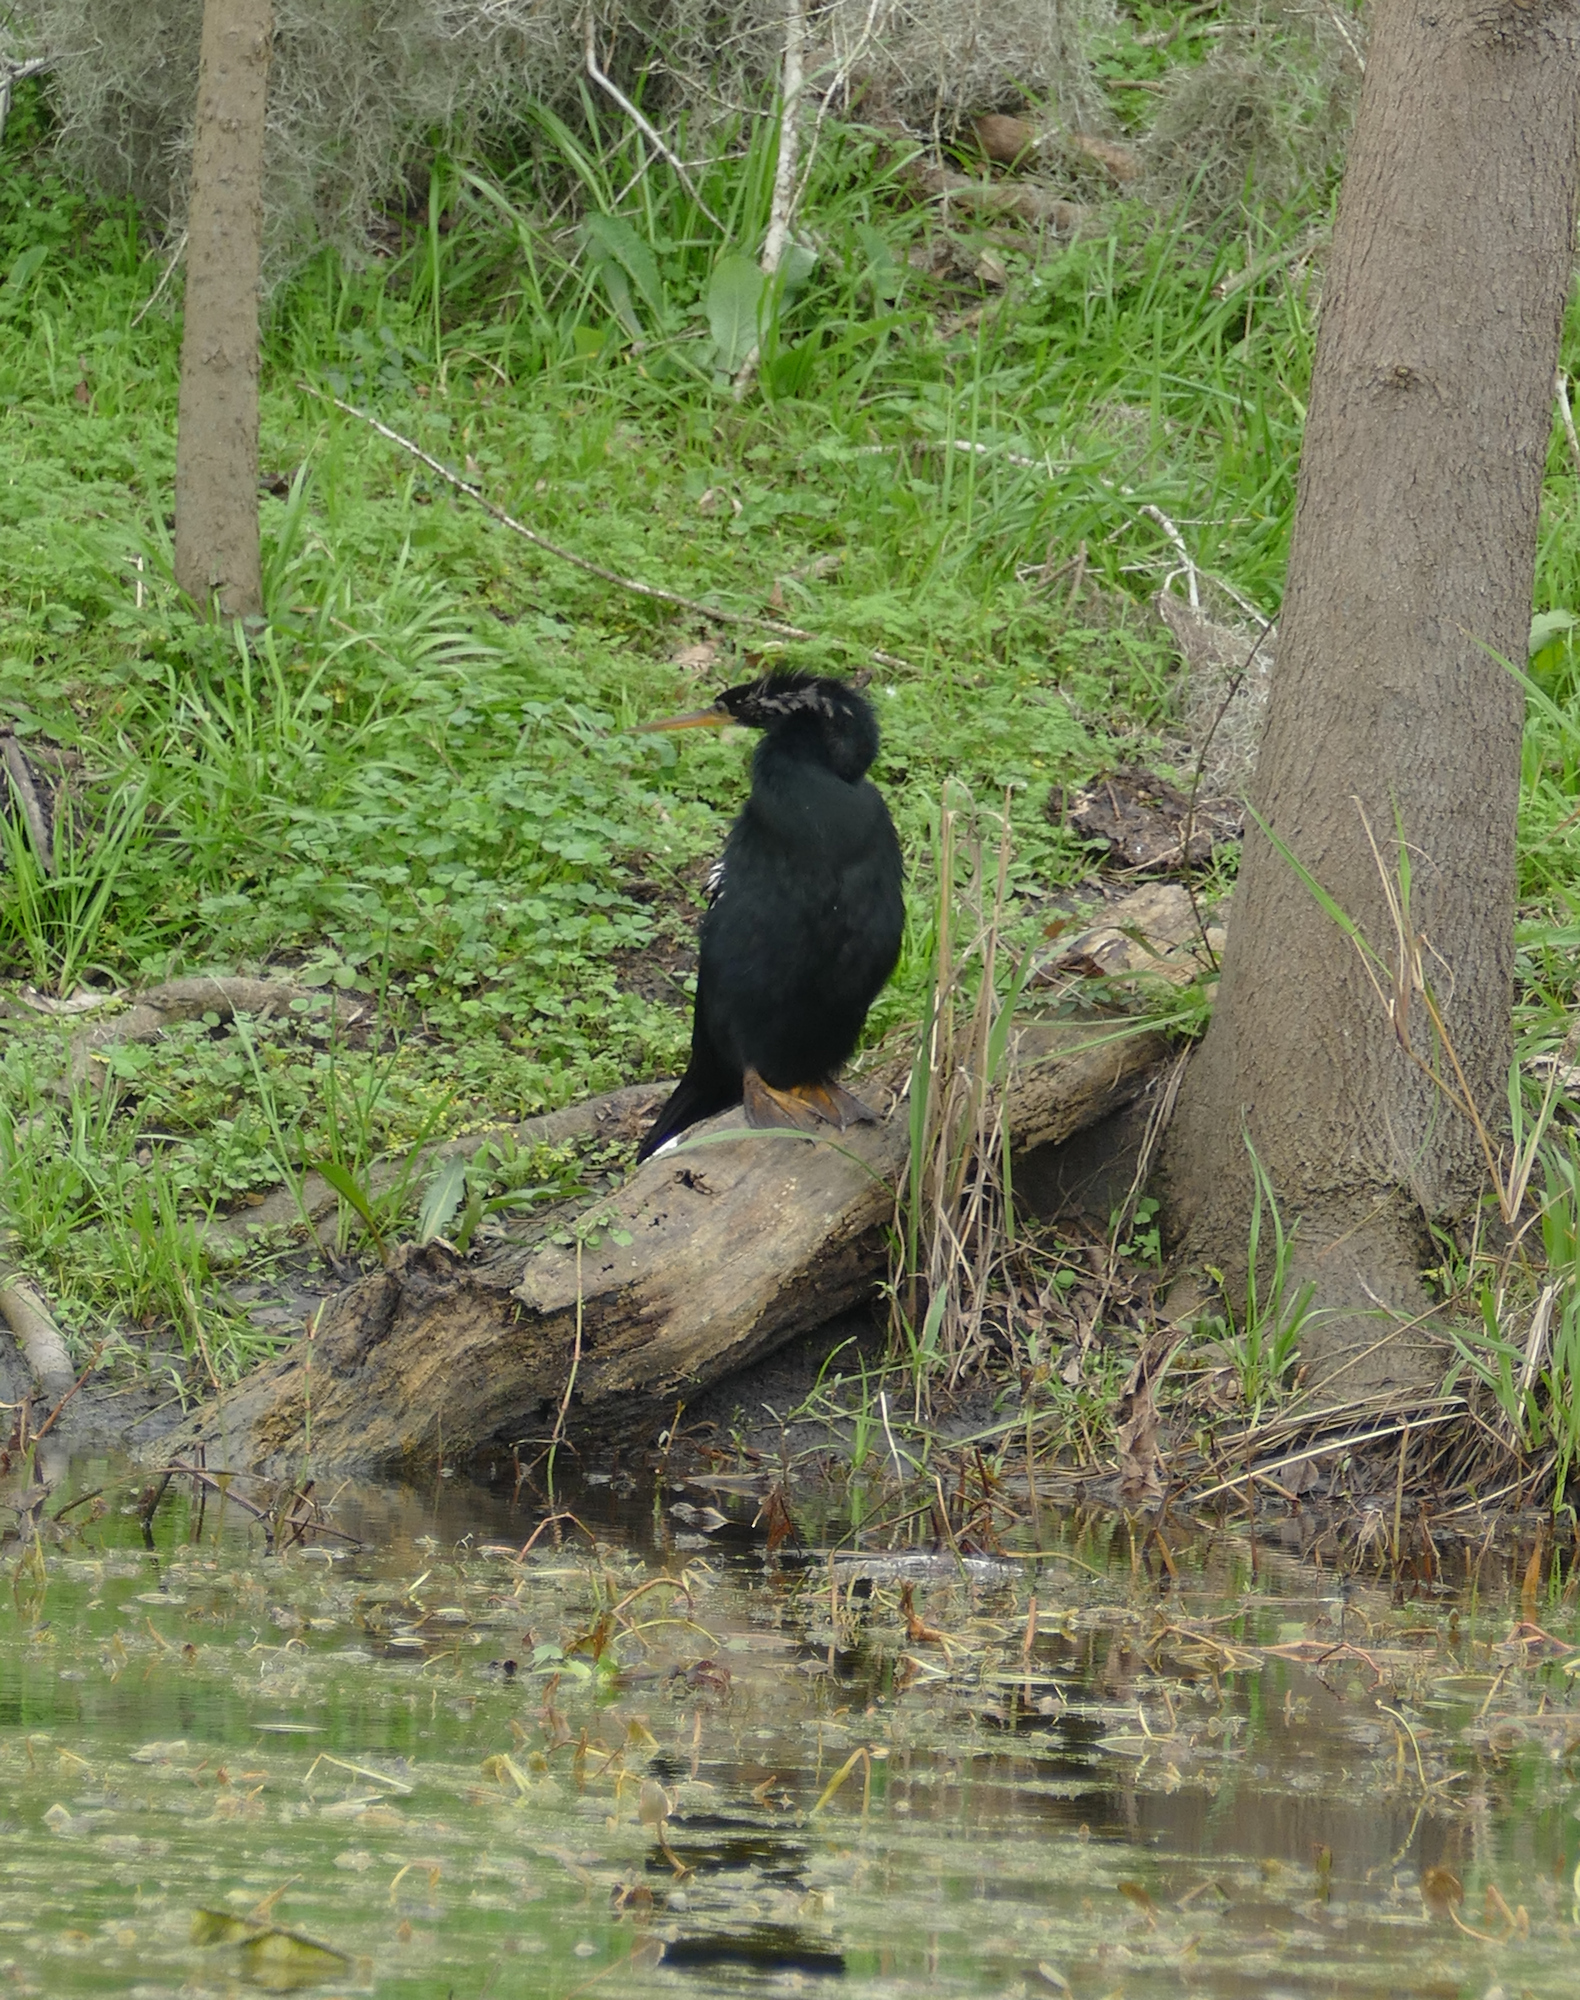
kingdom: Animalia
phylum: Chordata
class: Aves
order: Suliformes
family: Anhingidae
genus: Anhinga
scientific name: Anhinga anhinga
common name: Anhinga
